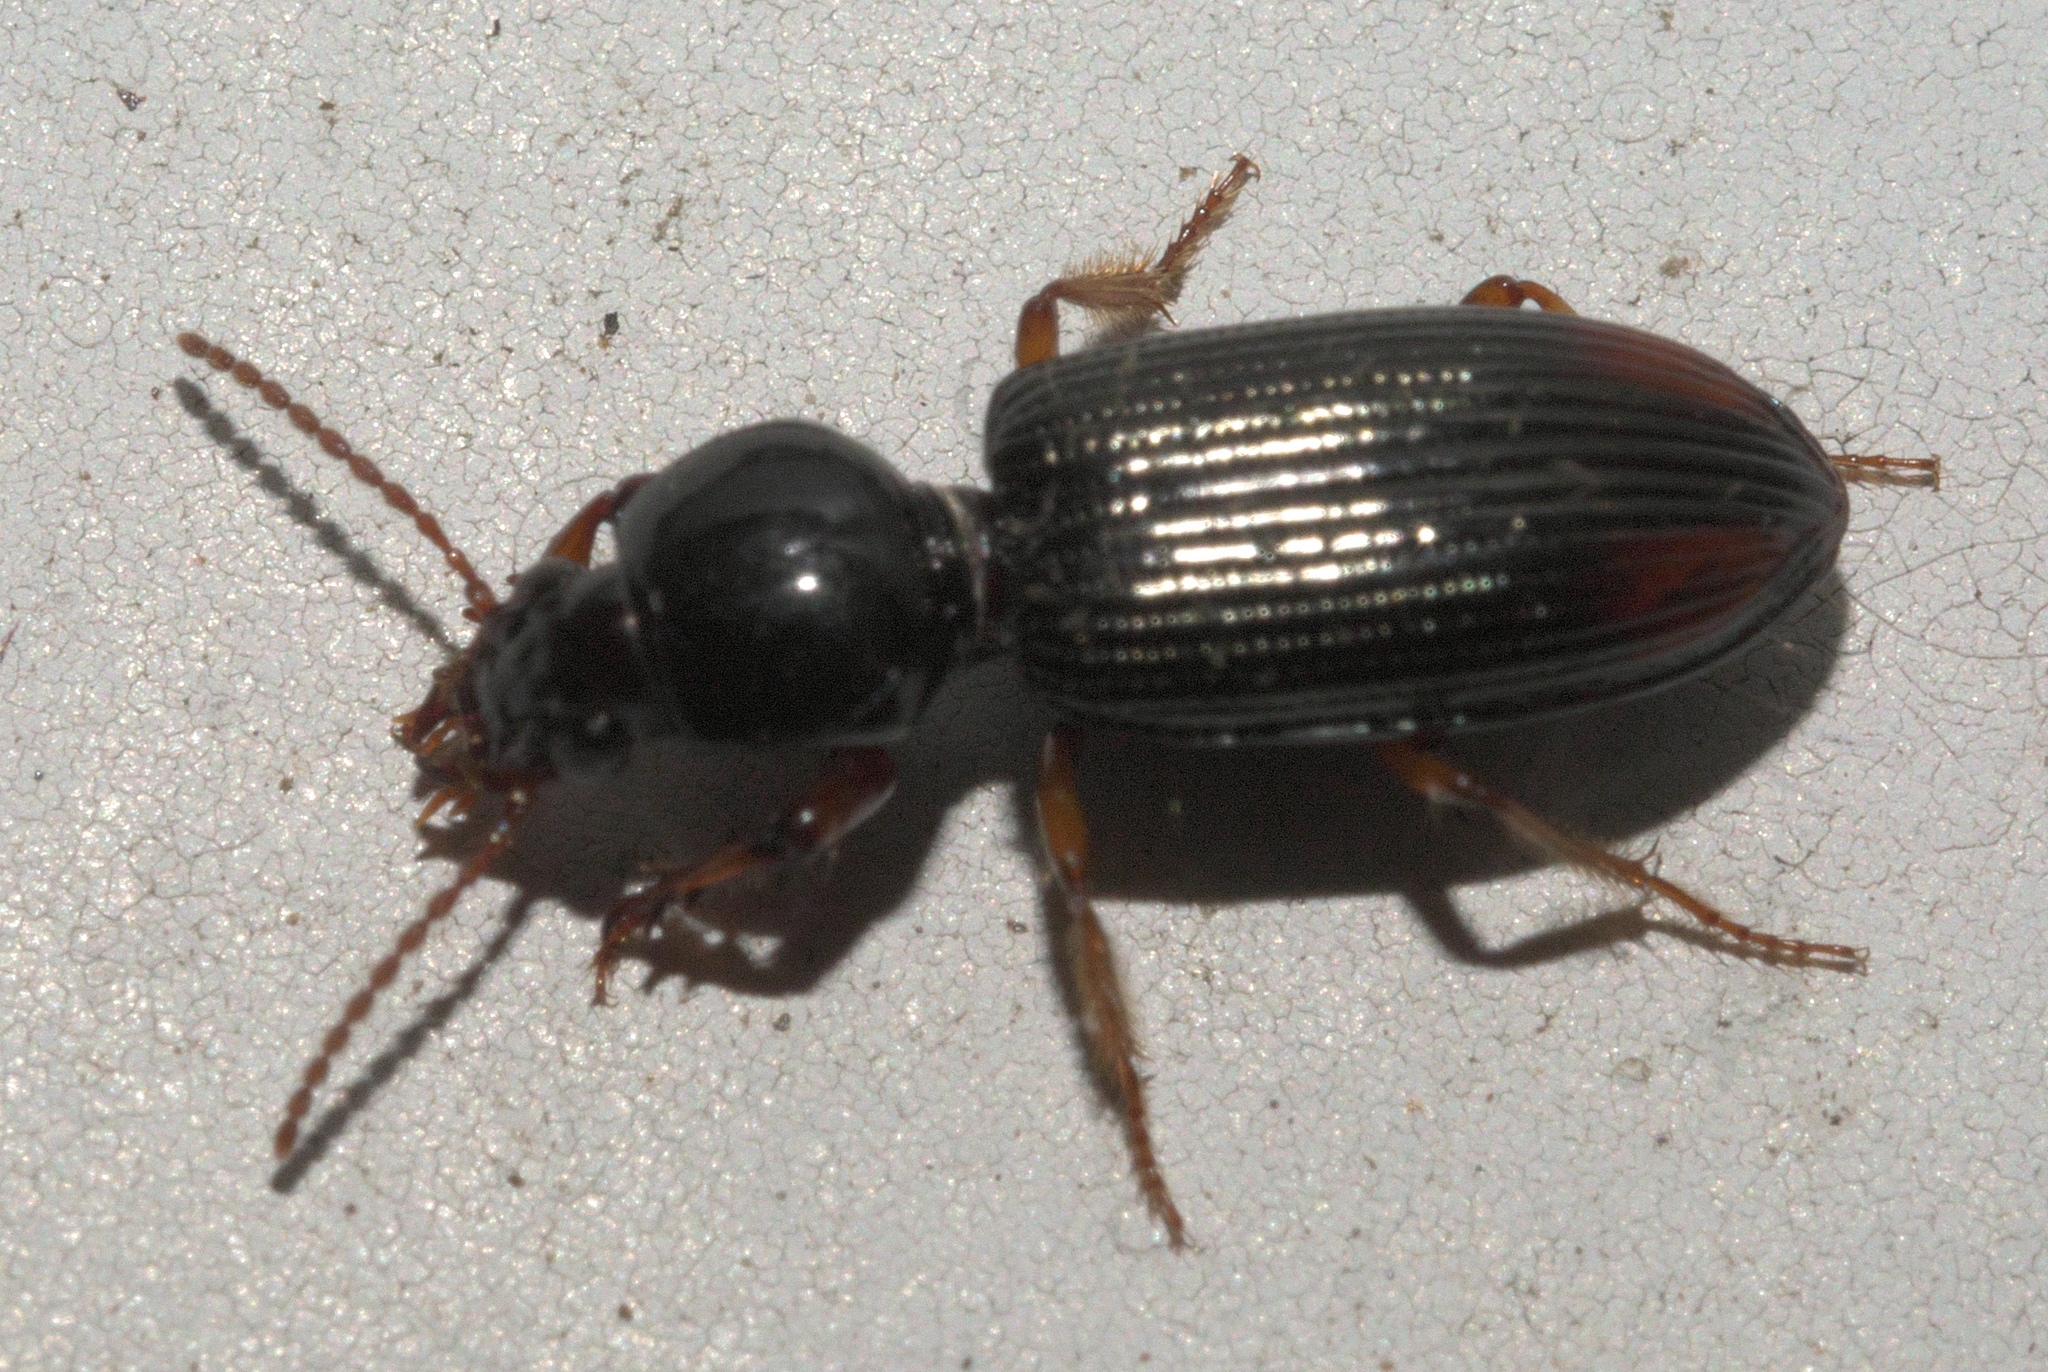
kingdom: Animalia
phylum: Arthropoda
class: Insecta
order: Coleoptera
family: Carabidae
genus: Aspidoglossa
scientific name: Aspidoglossa subangulata
